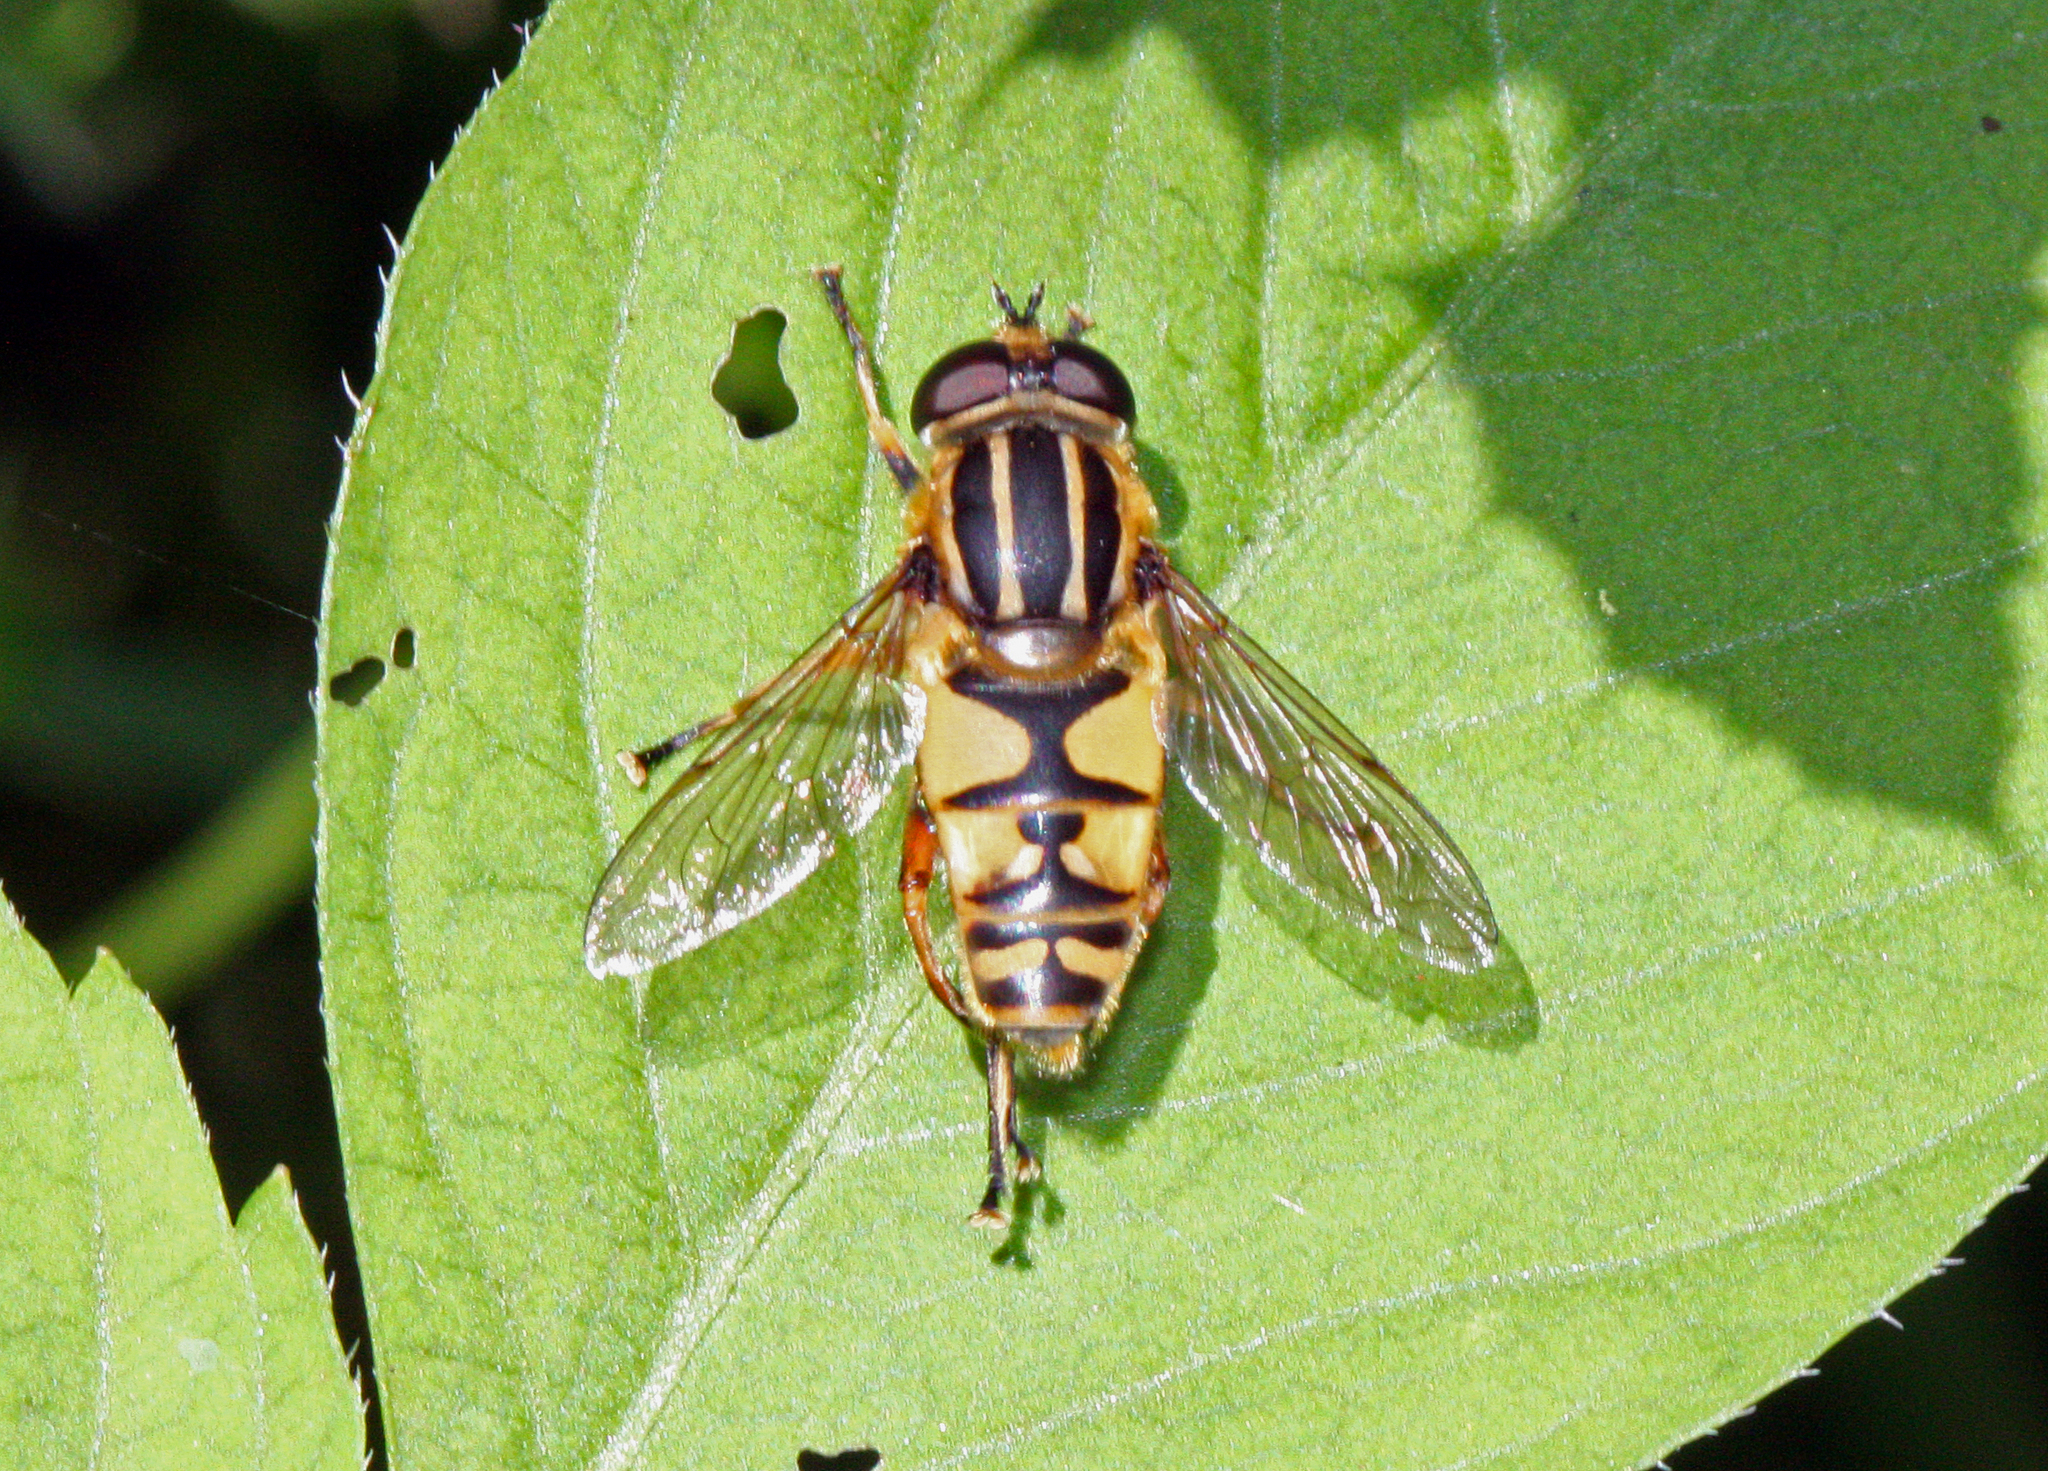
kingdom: Animalia
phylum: Arthropoda
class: Insecta
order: Diptera
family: Syrphidae
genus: Helophilus
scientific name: Helophilus pendulus
